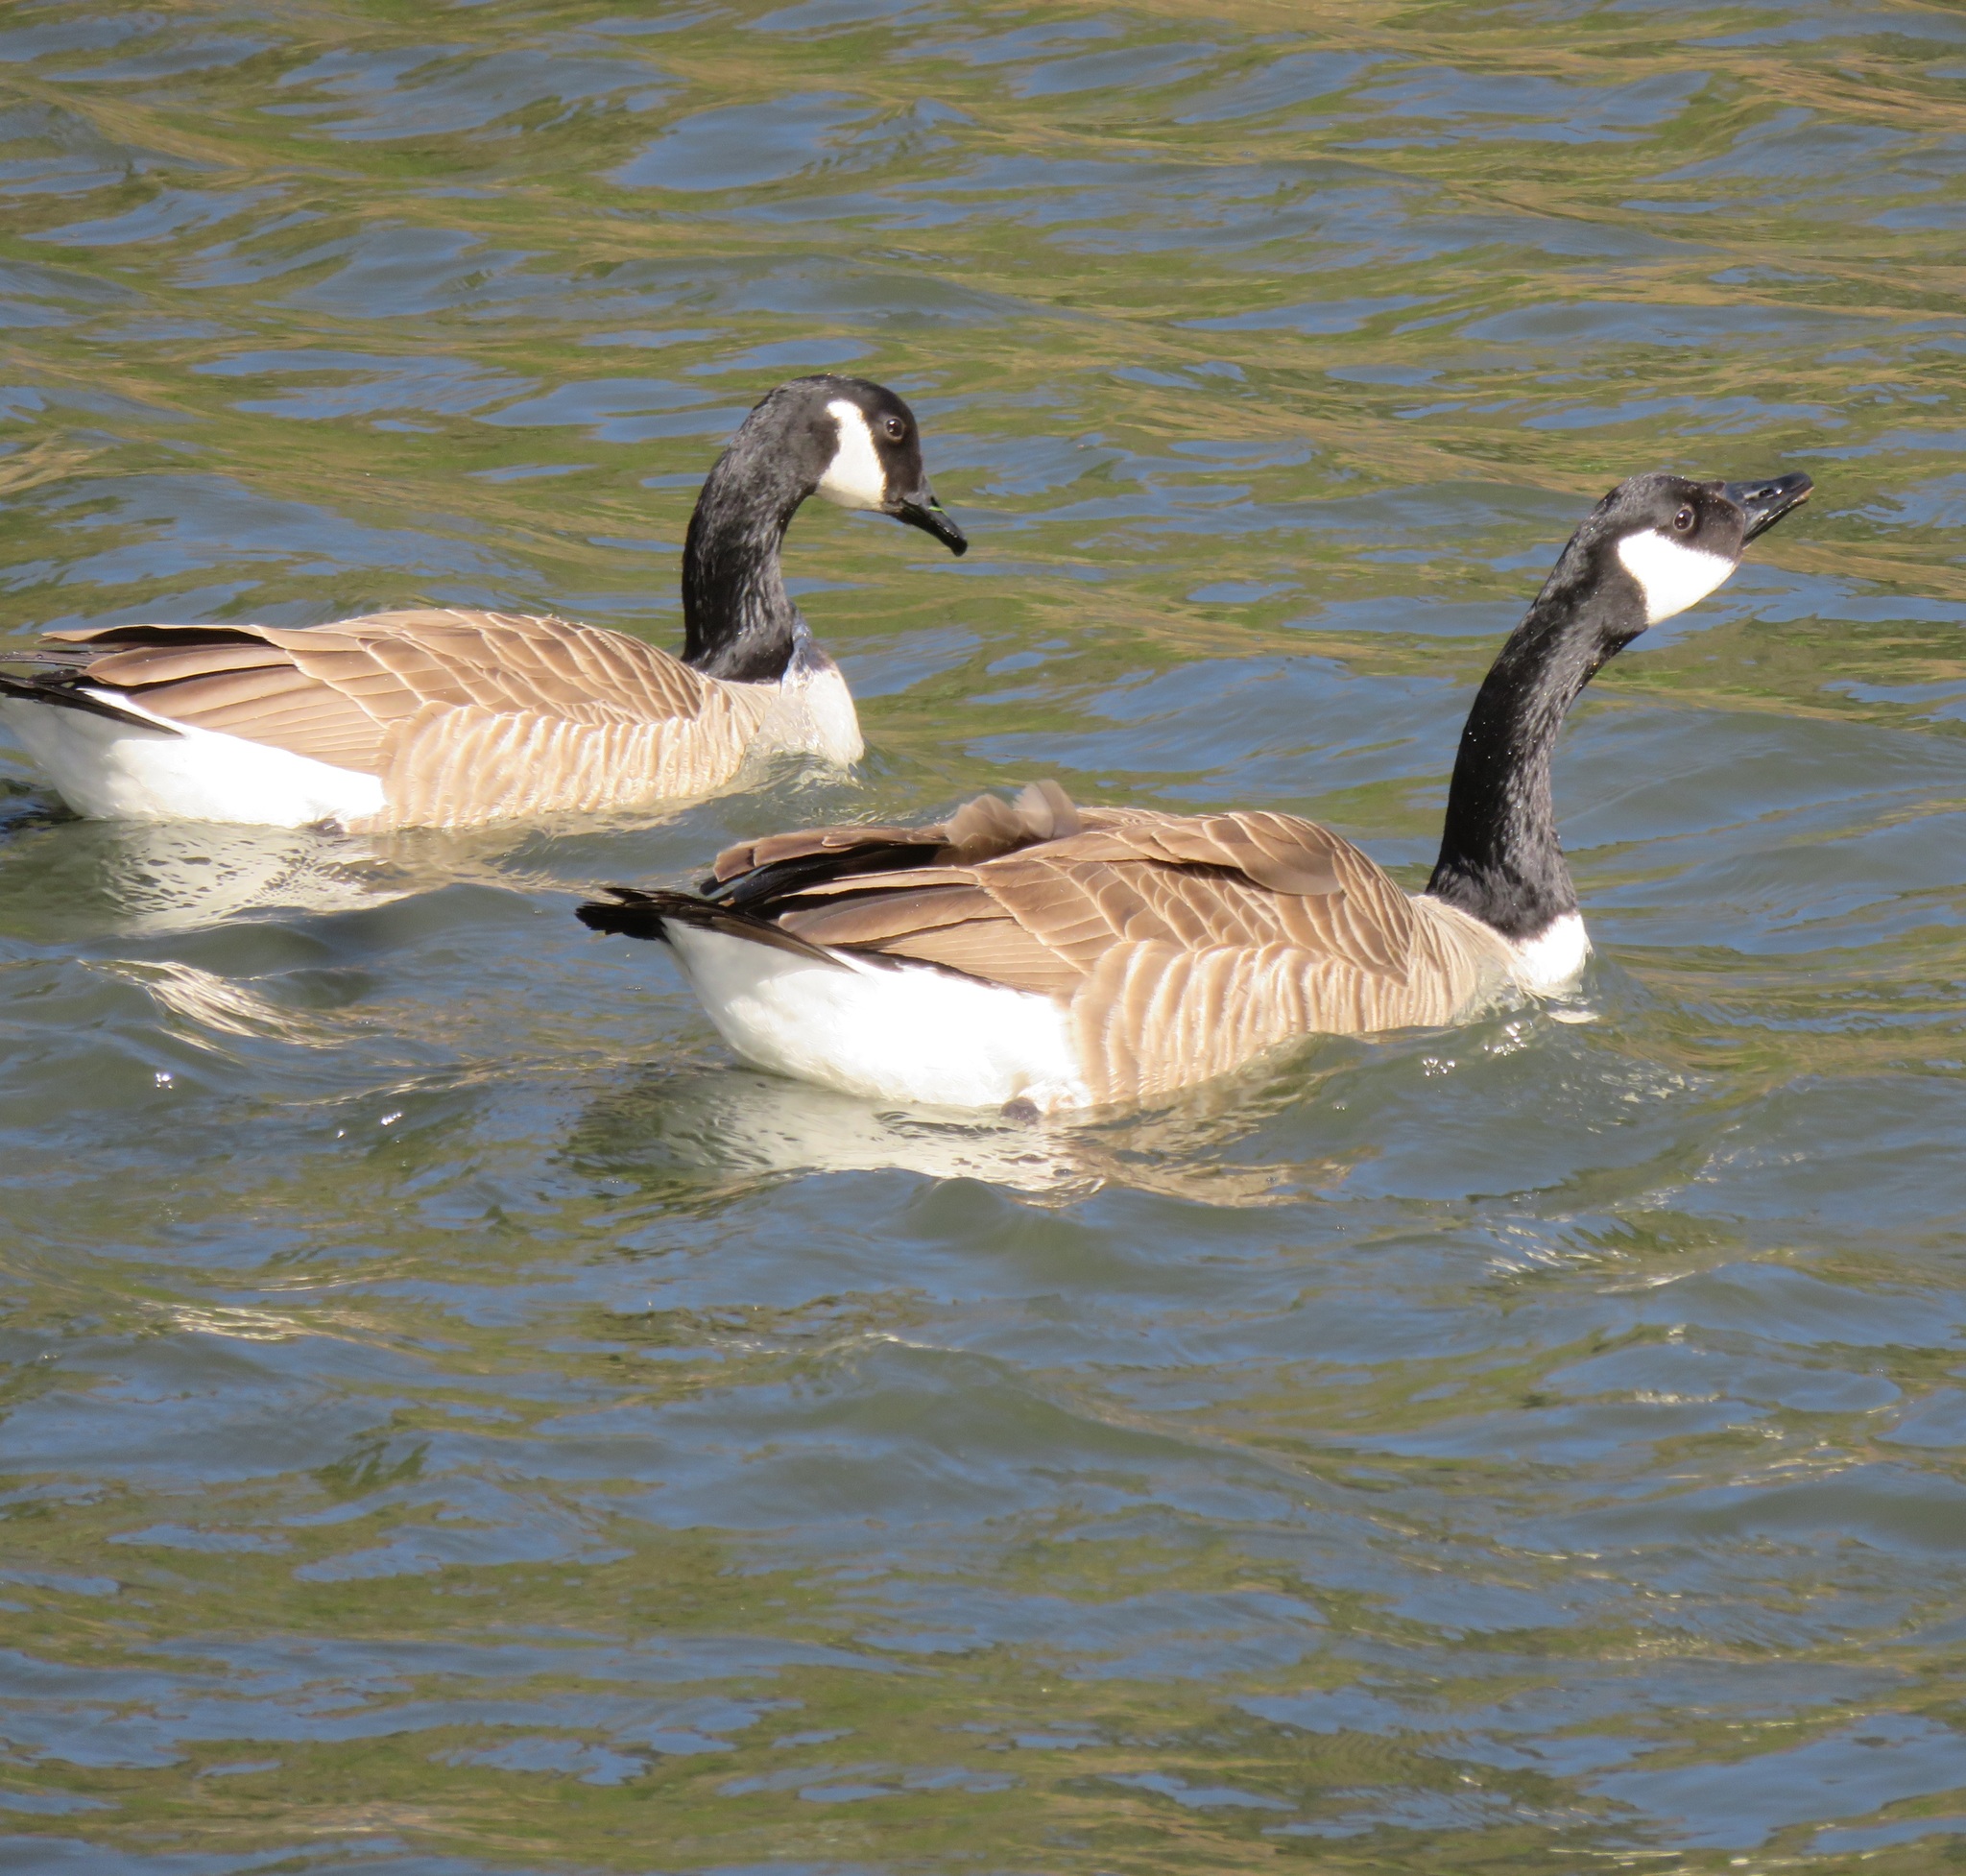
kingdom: Animalia
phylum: Chordata
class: Aves
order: Anseriformes
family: Anatidae
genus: Branta
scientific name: Branta canadensis
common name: Canada goose
